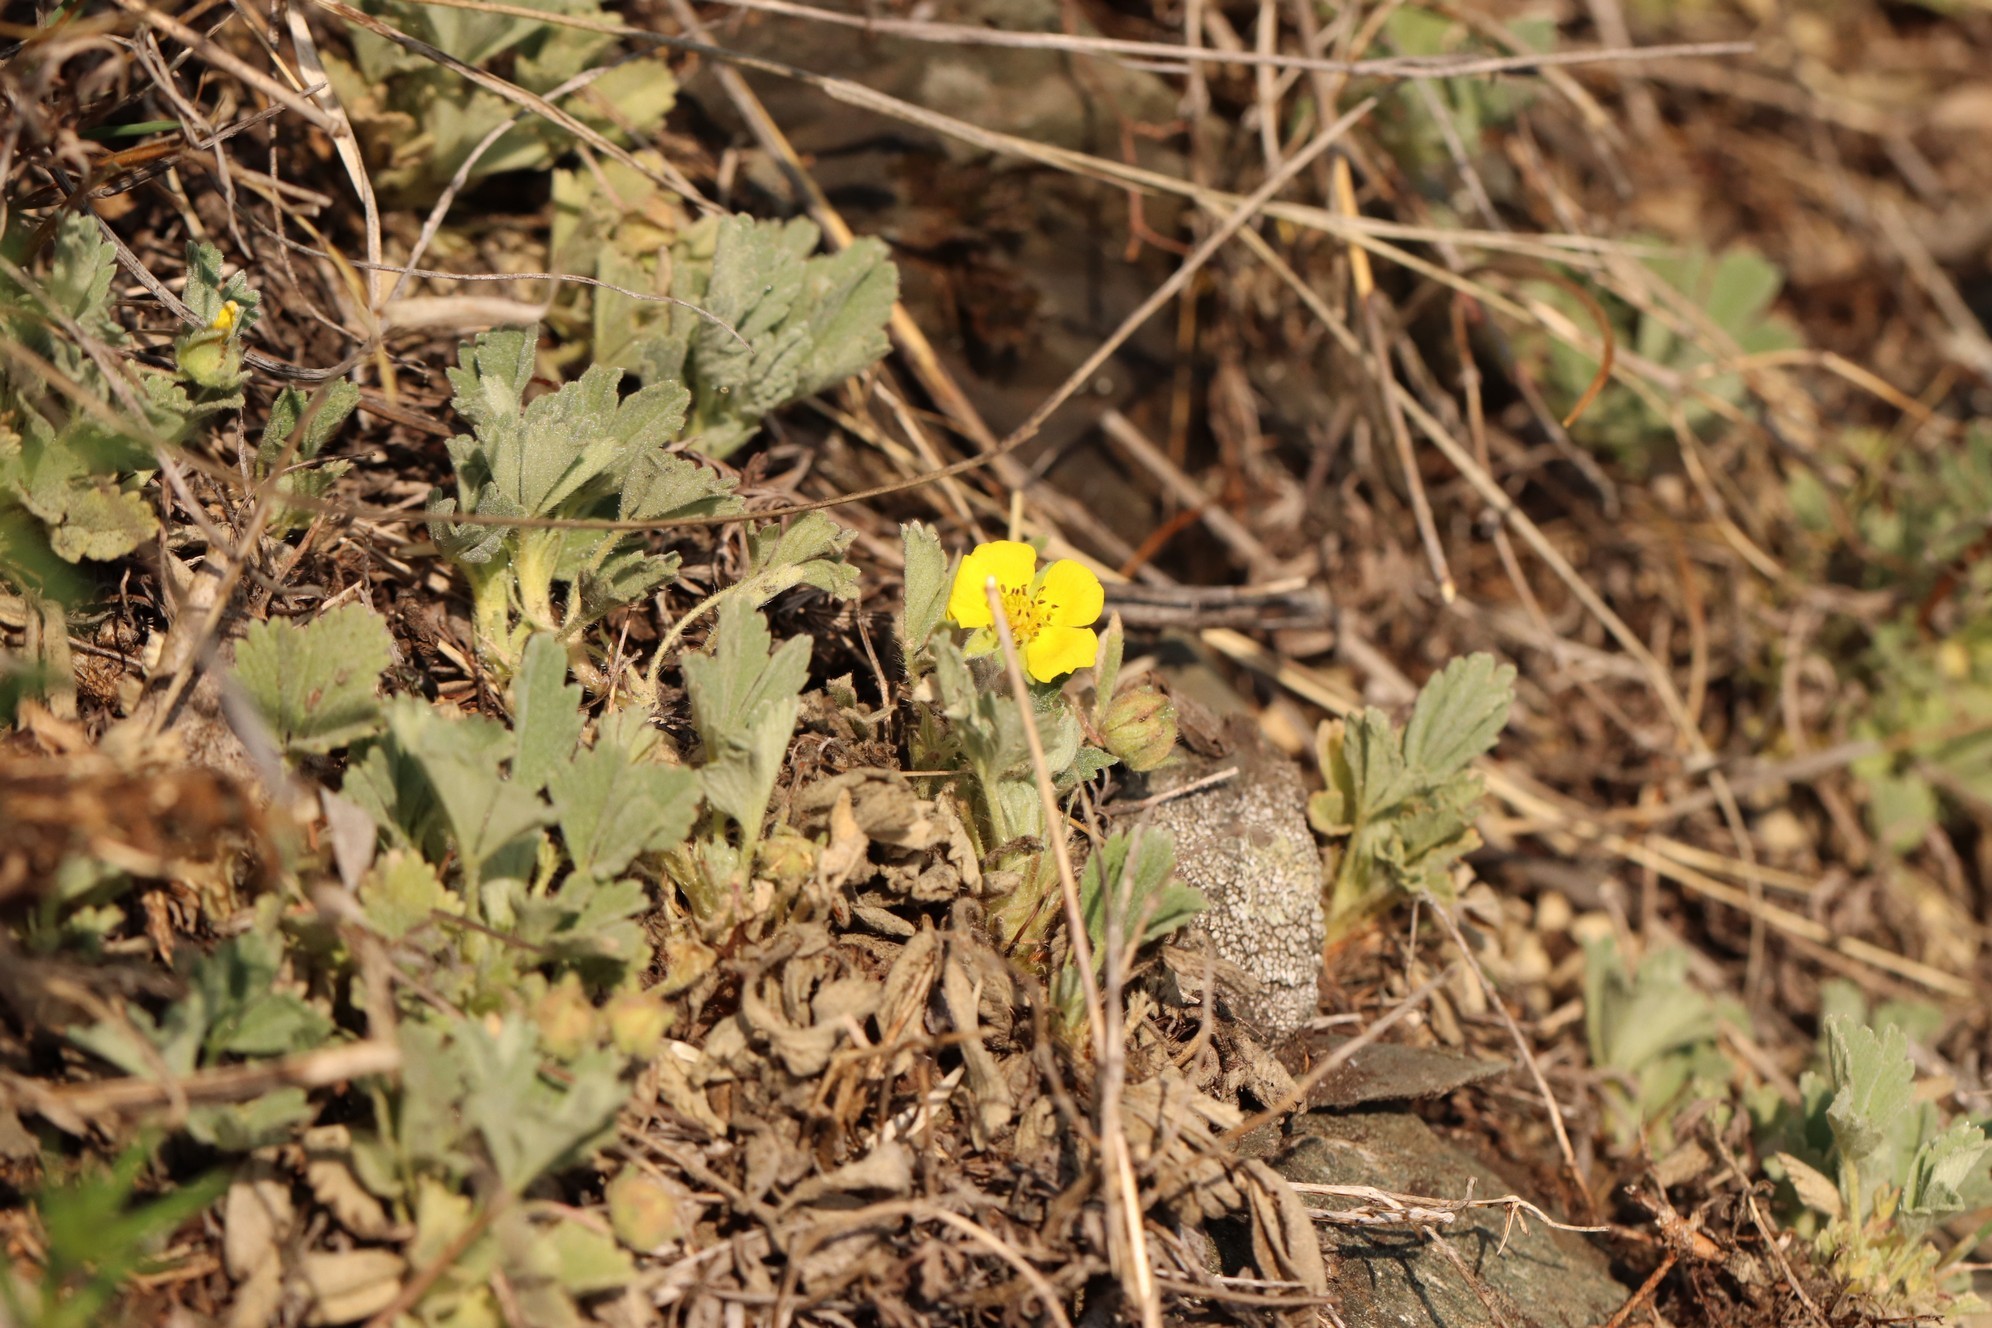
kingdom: Plantae
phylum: Tracheophyta
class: Magnoliopsida
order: Rosales
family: Rosaceae
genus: Potentilla
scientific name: Potentilla acaulis
